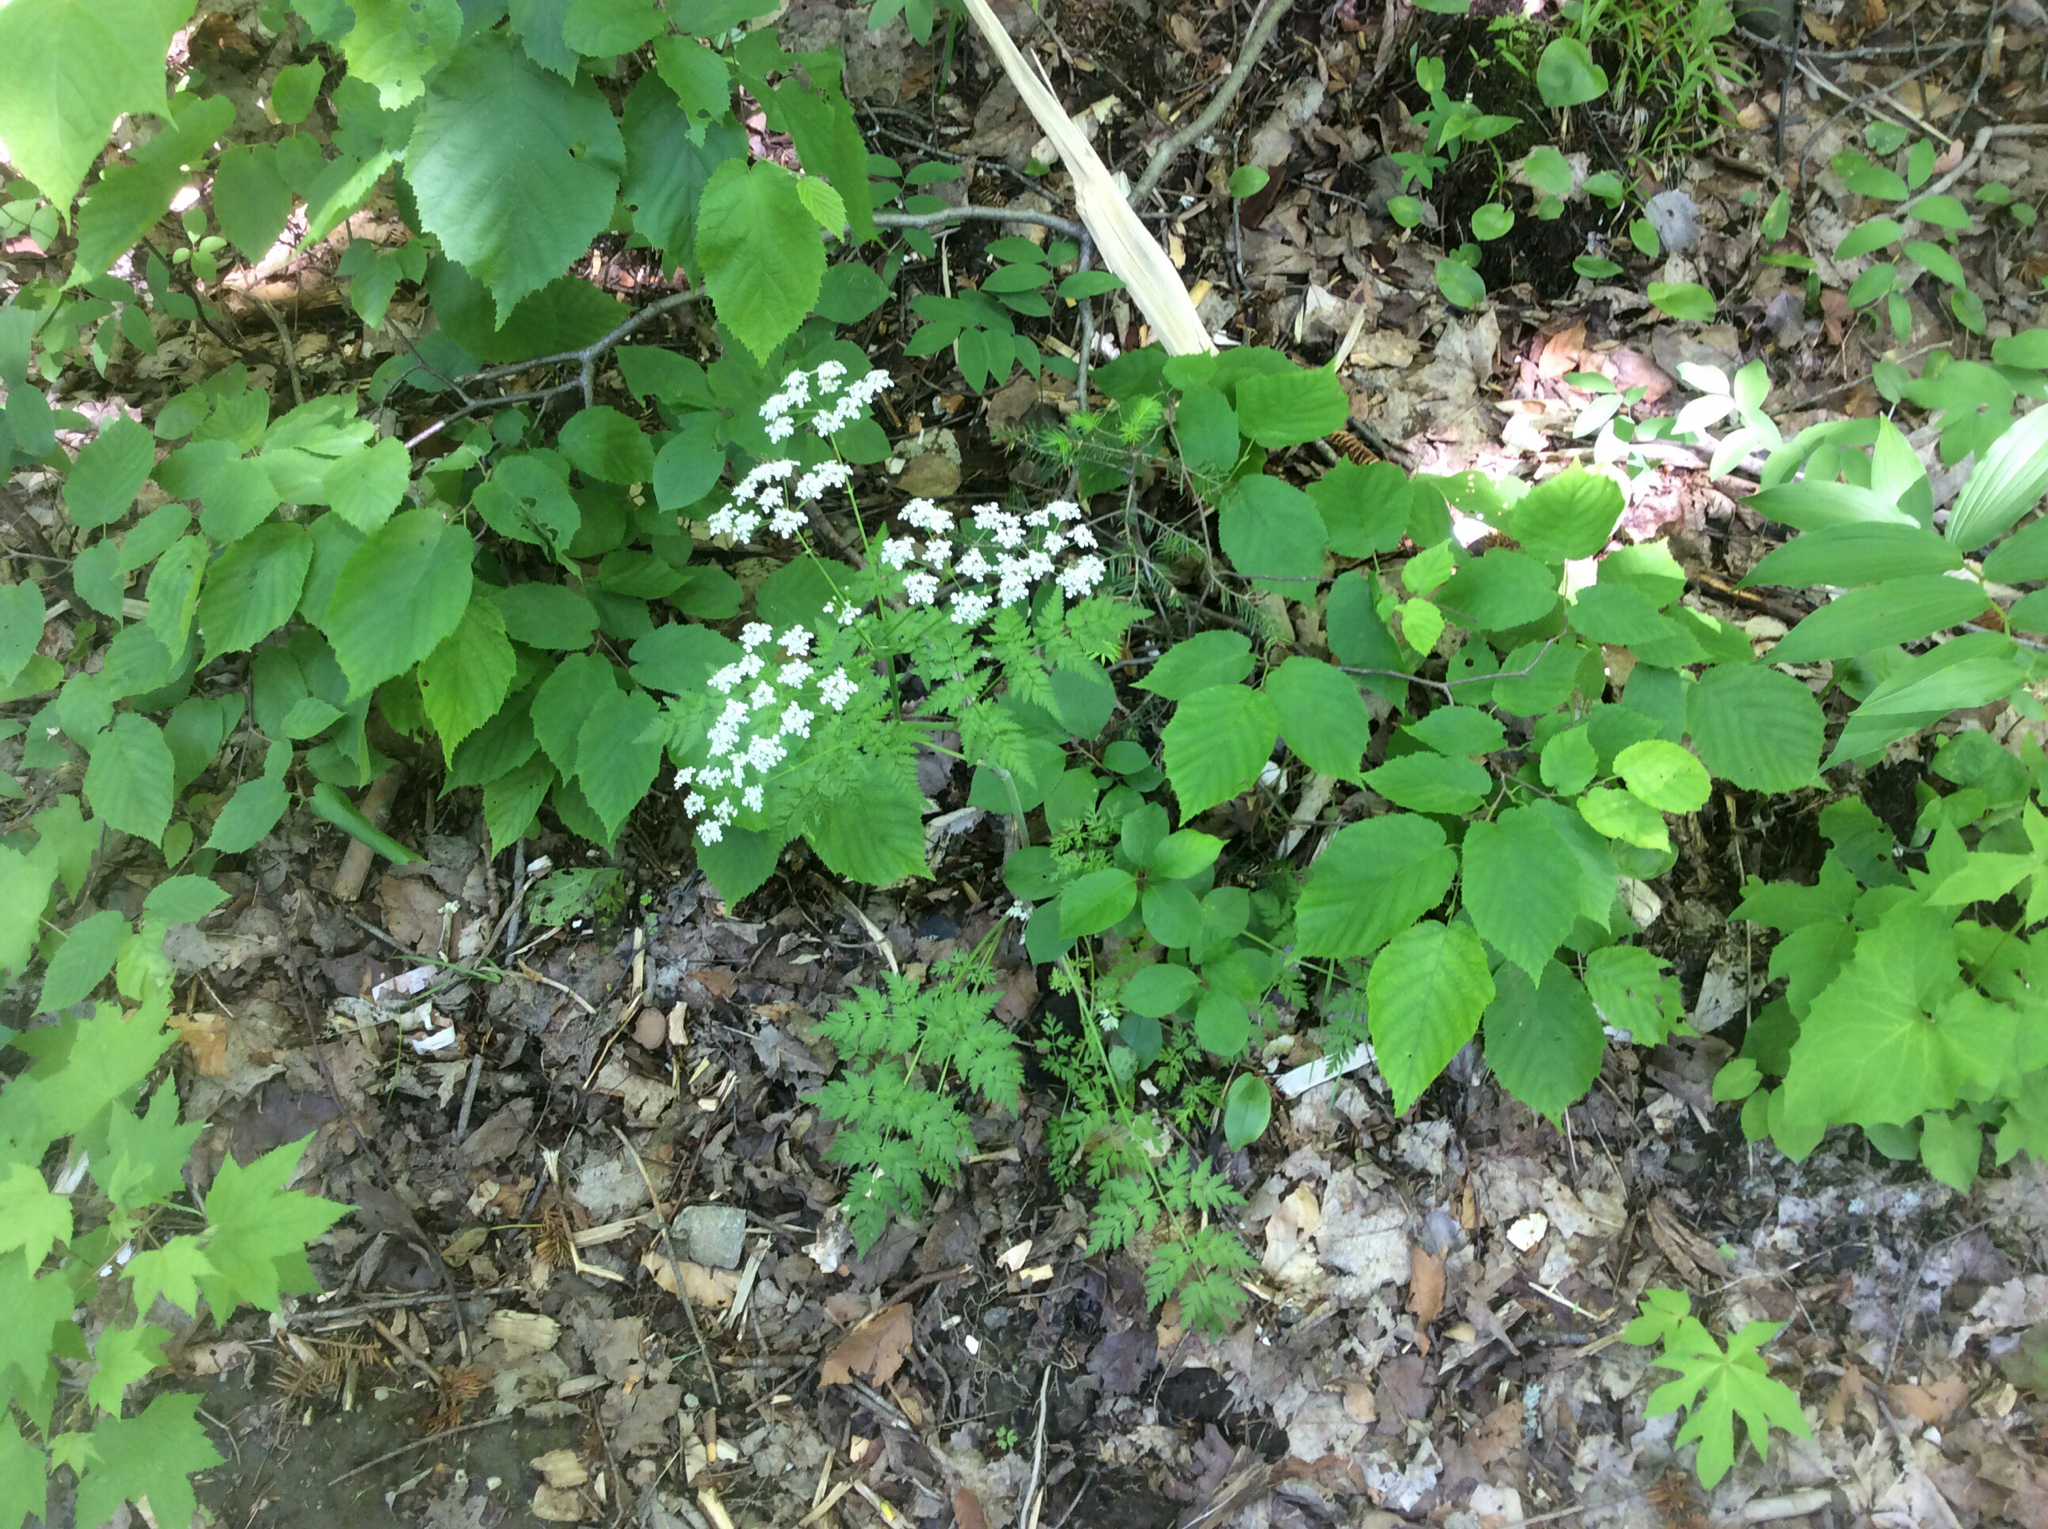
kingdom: Plantae
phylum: Tracheophyta
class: Magnoliopsida
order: Apiales
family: Apiaceae
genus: Anthriscus
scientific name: Anthriscus sylvestris
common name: Cow parsley
